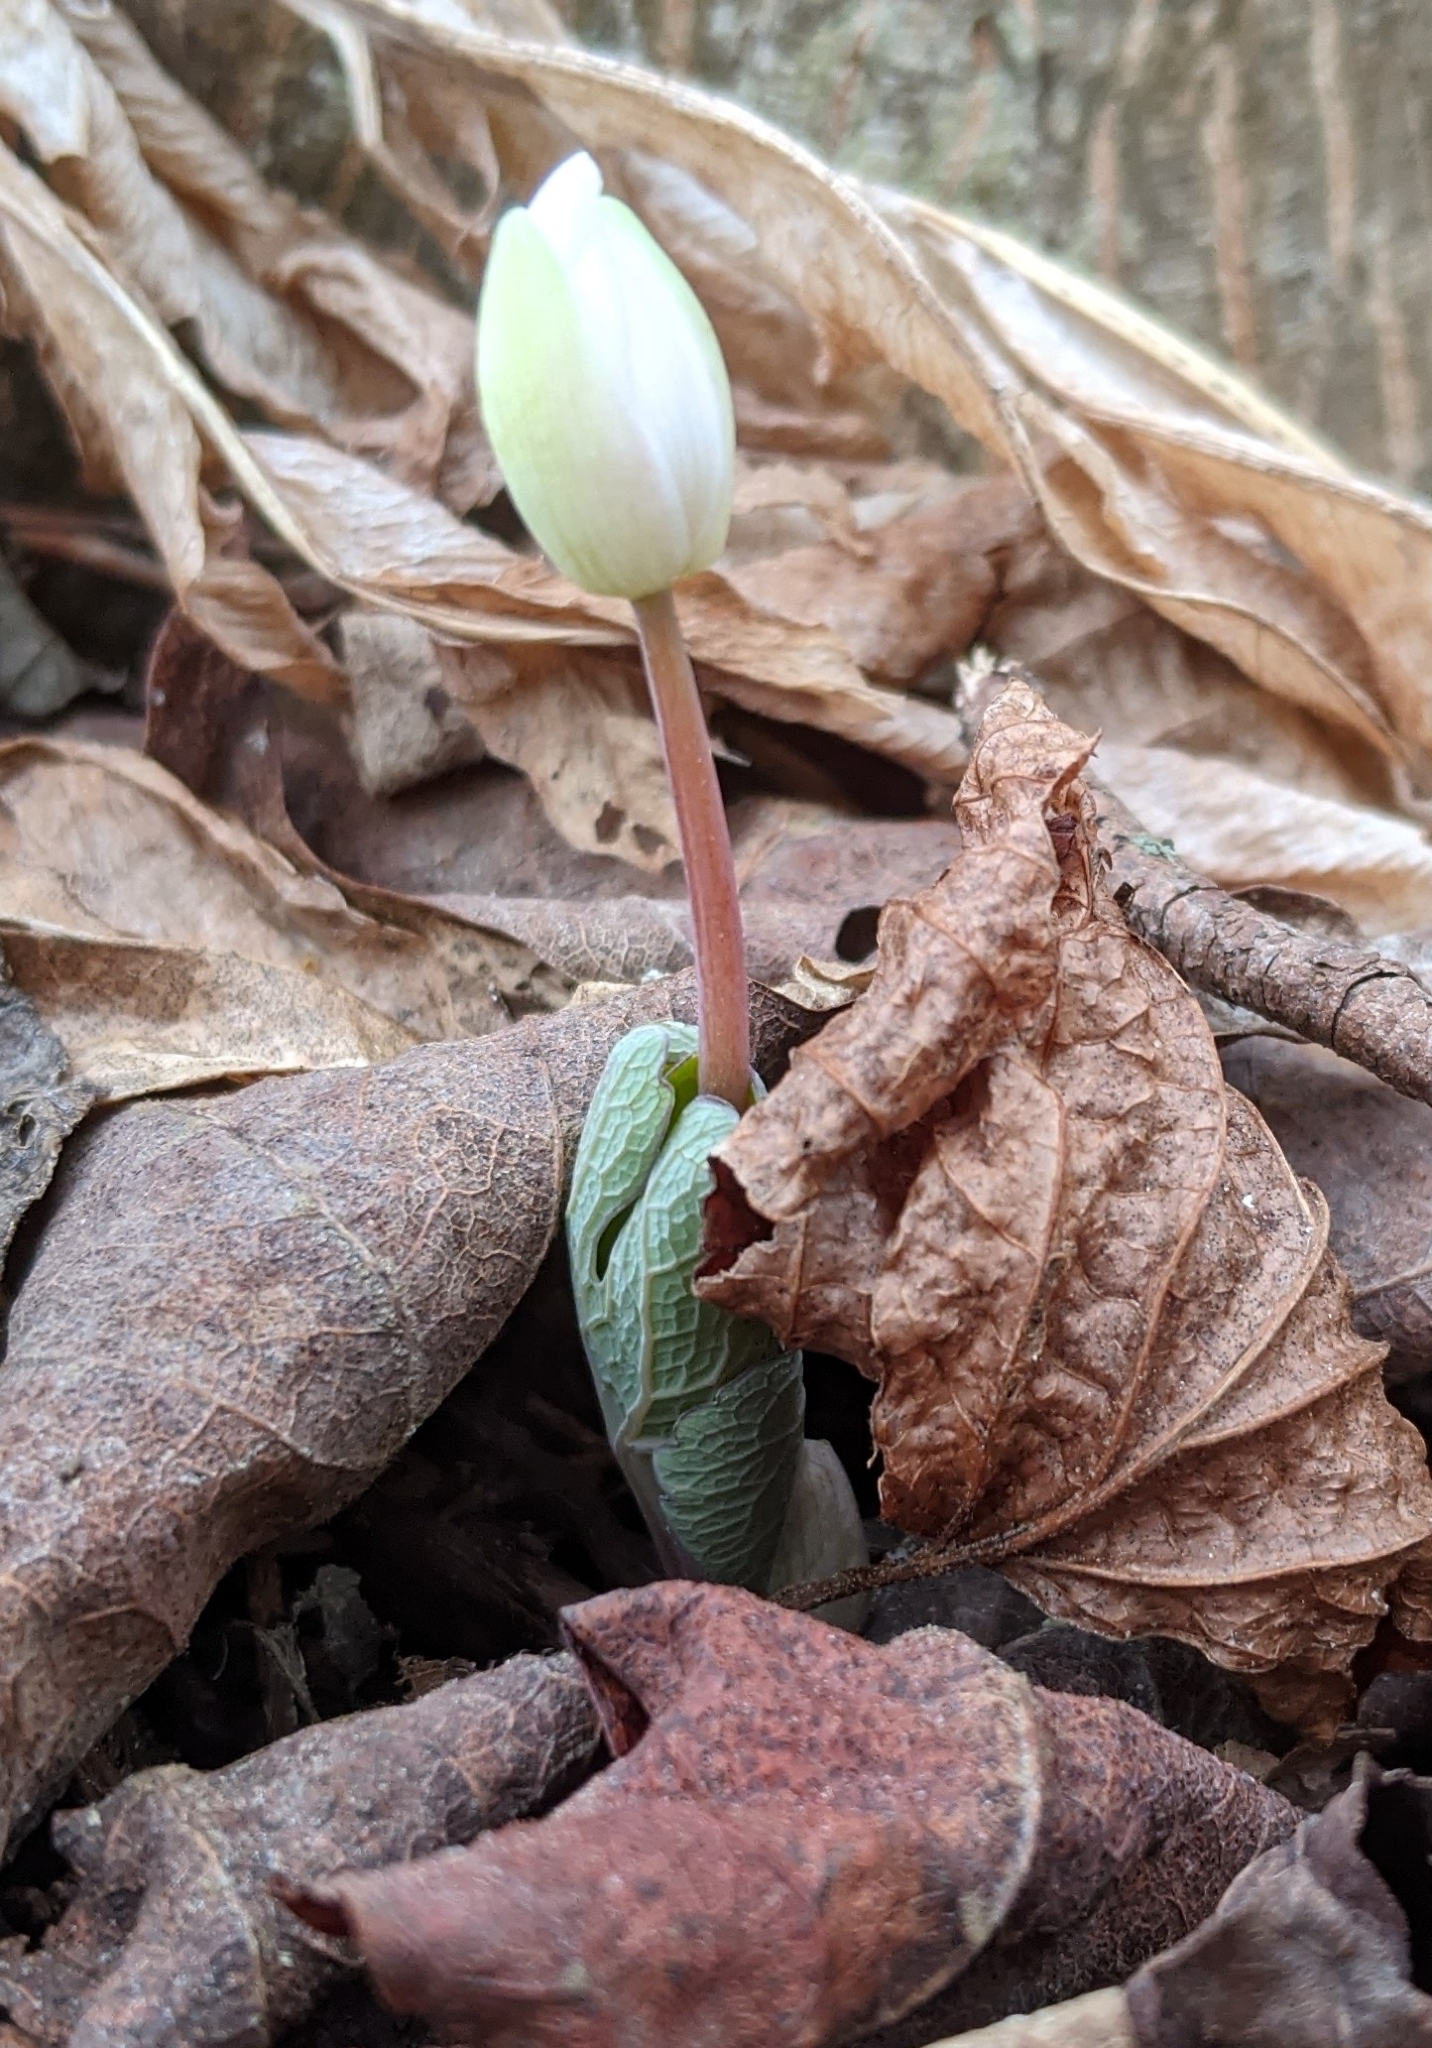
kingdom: Plantae
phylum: Tracheophyta
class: Magnoliopsida
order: Ranunculales
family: Papaveraceae
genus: Sanguinaria
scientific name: Sanguinaria canadensis
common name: Bloodroot
